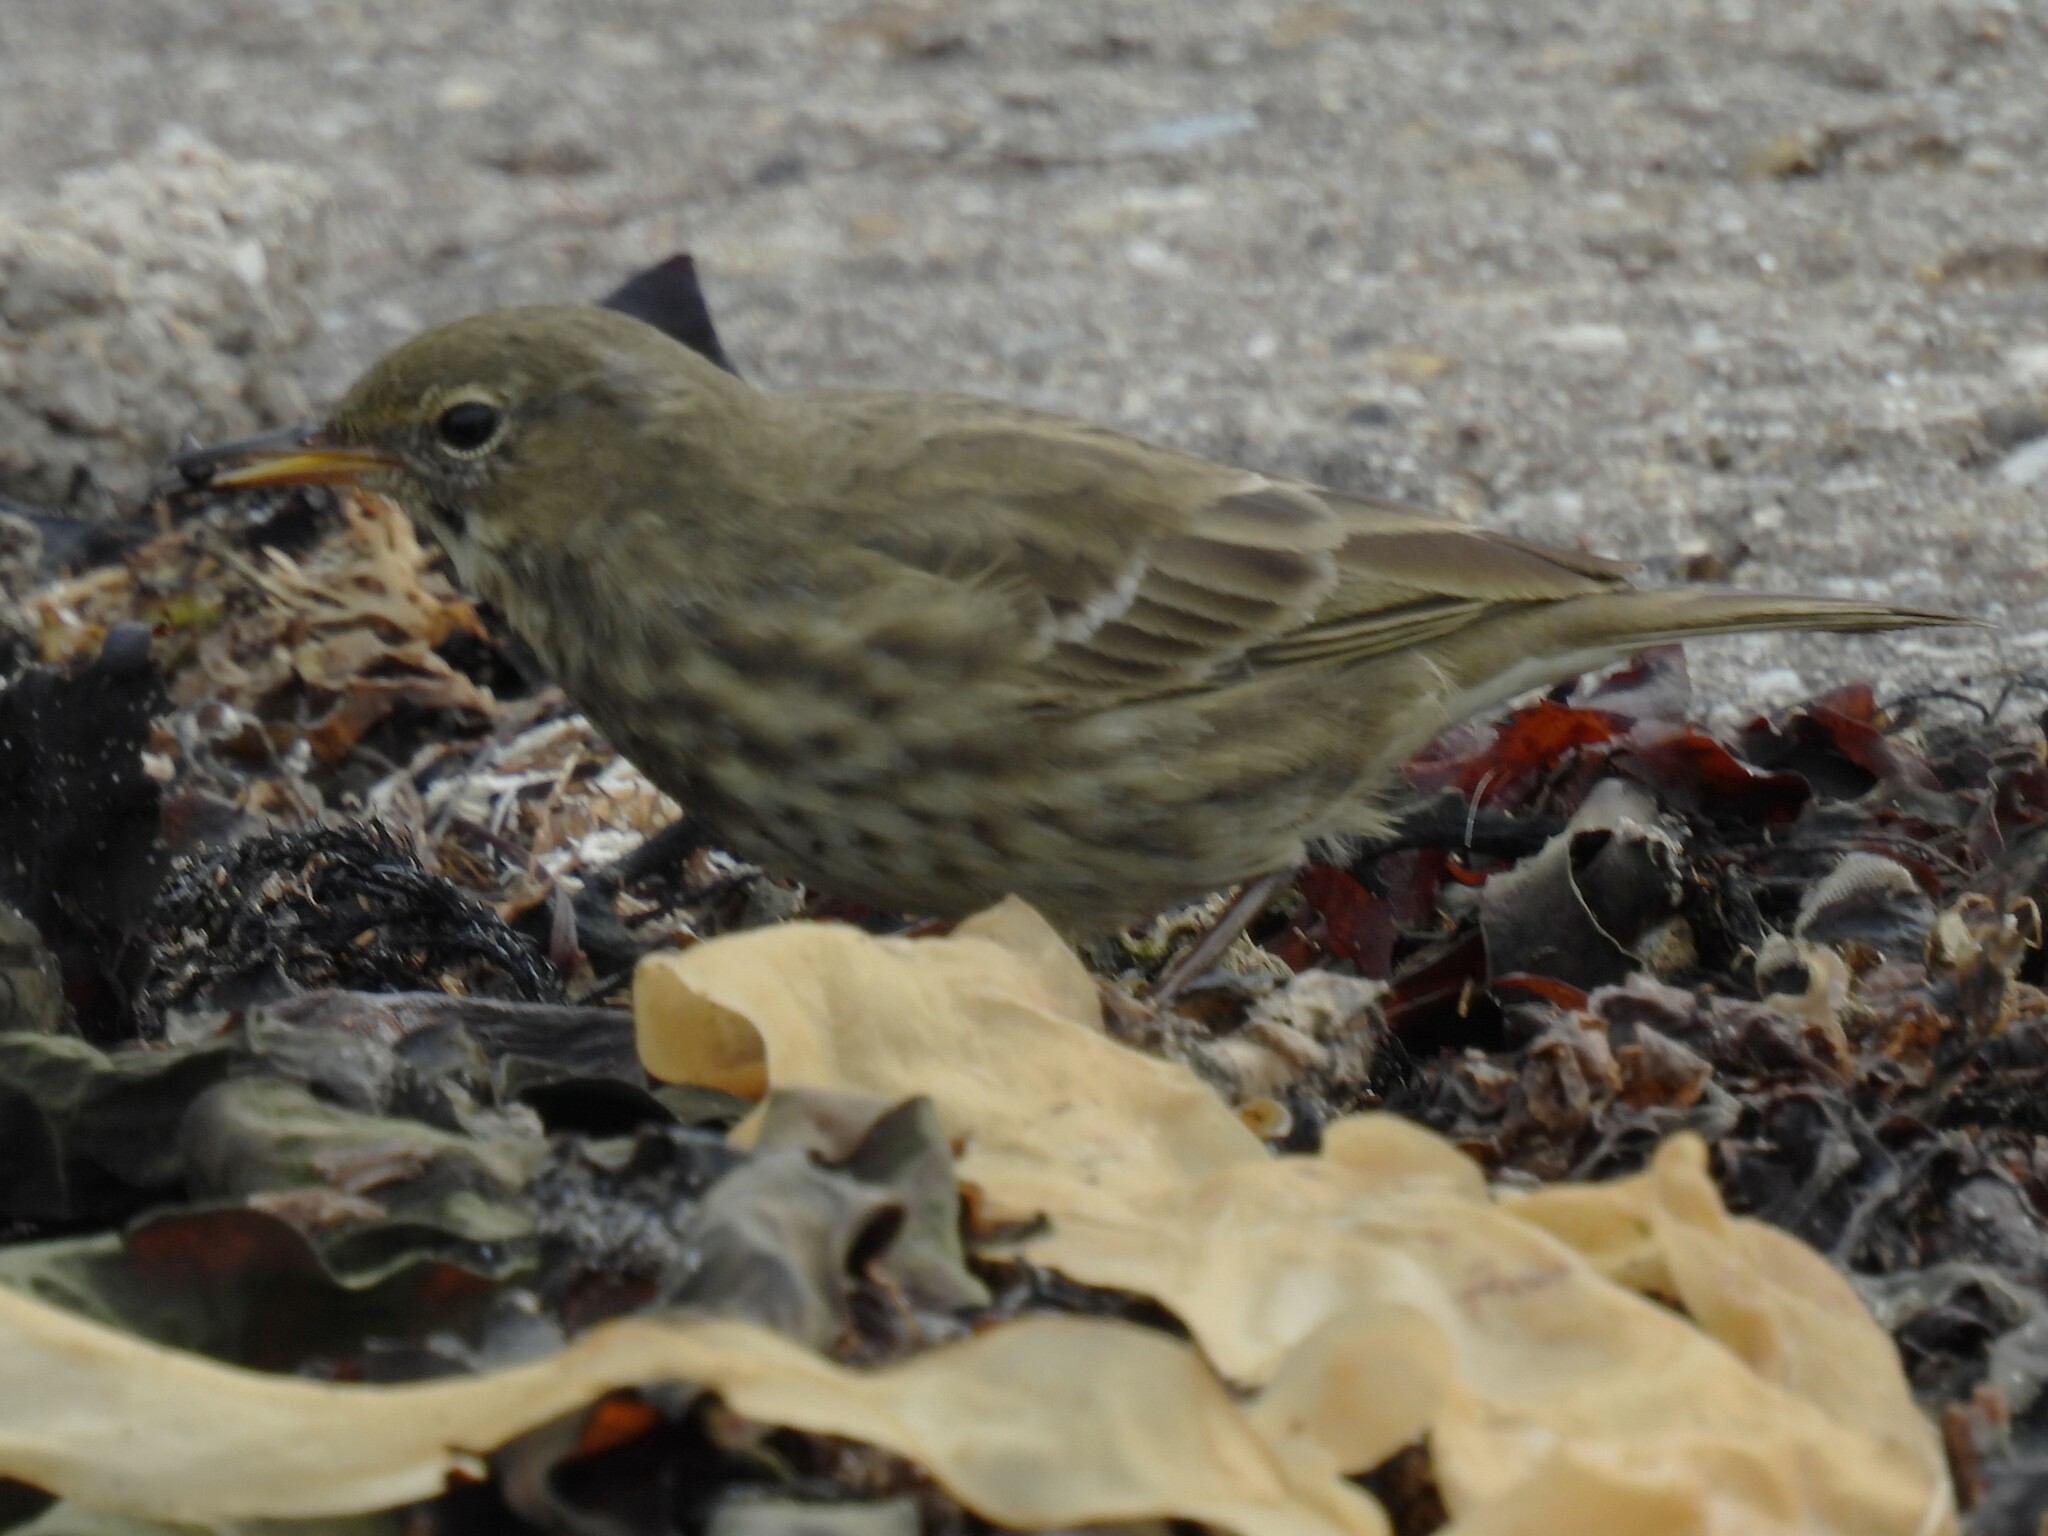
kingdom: Animalia
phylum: Chordata
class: Aves
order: Passeriformes
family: Motacillidae
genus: Anthus
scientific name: Anthus petrosus
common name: Eurasian rock pipit
